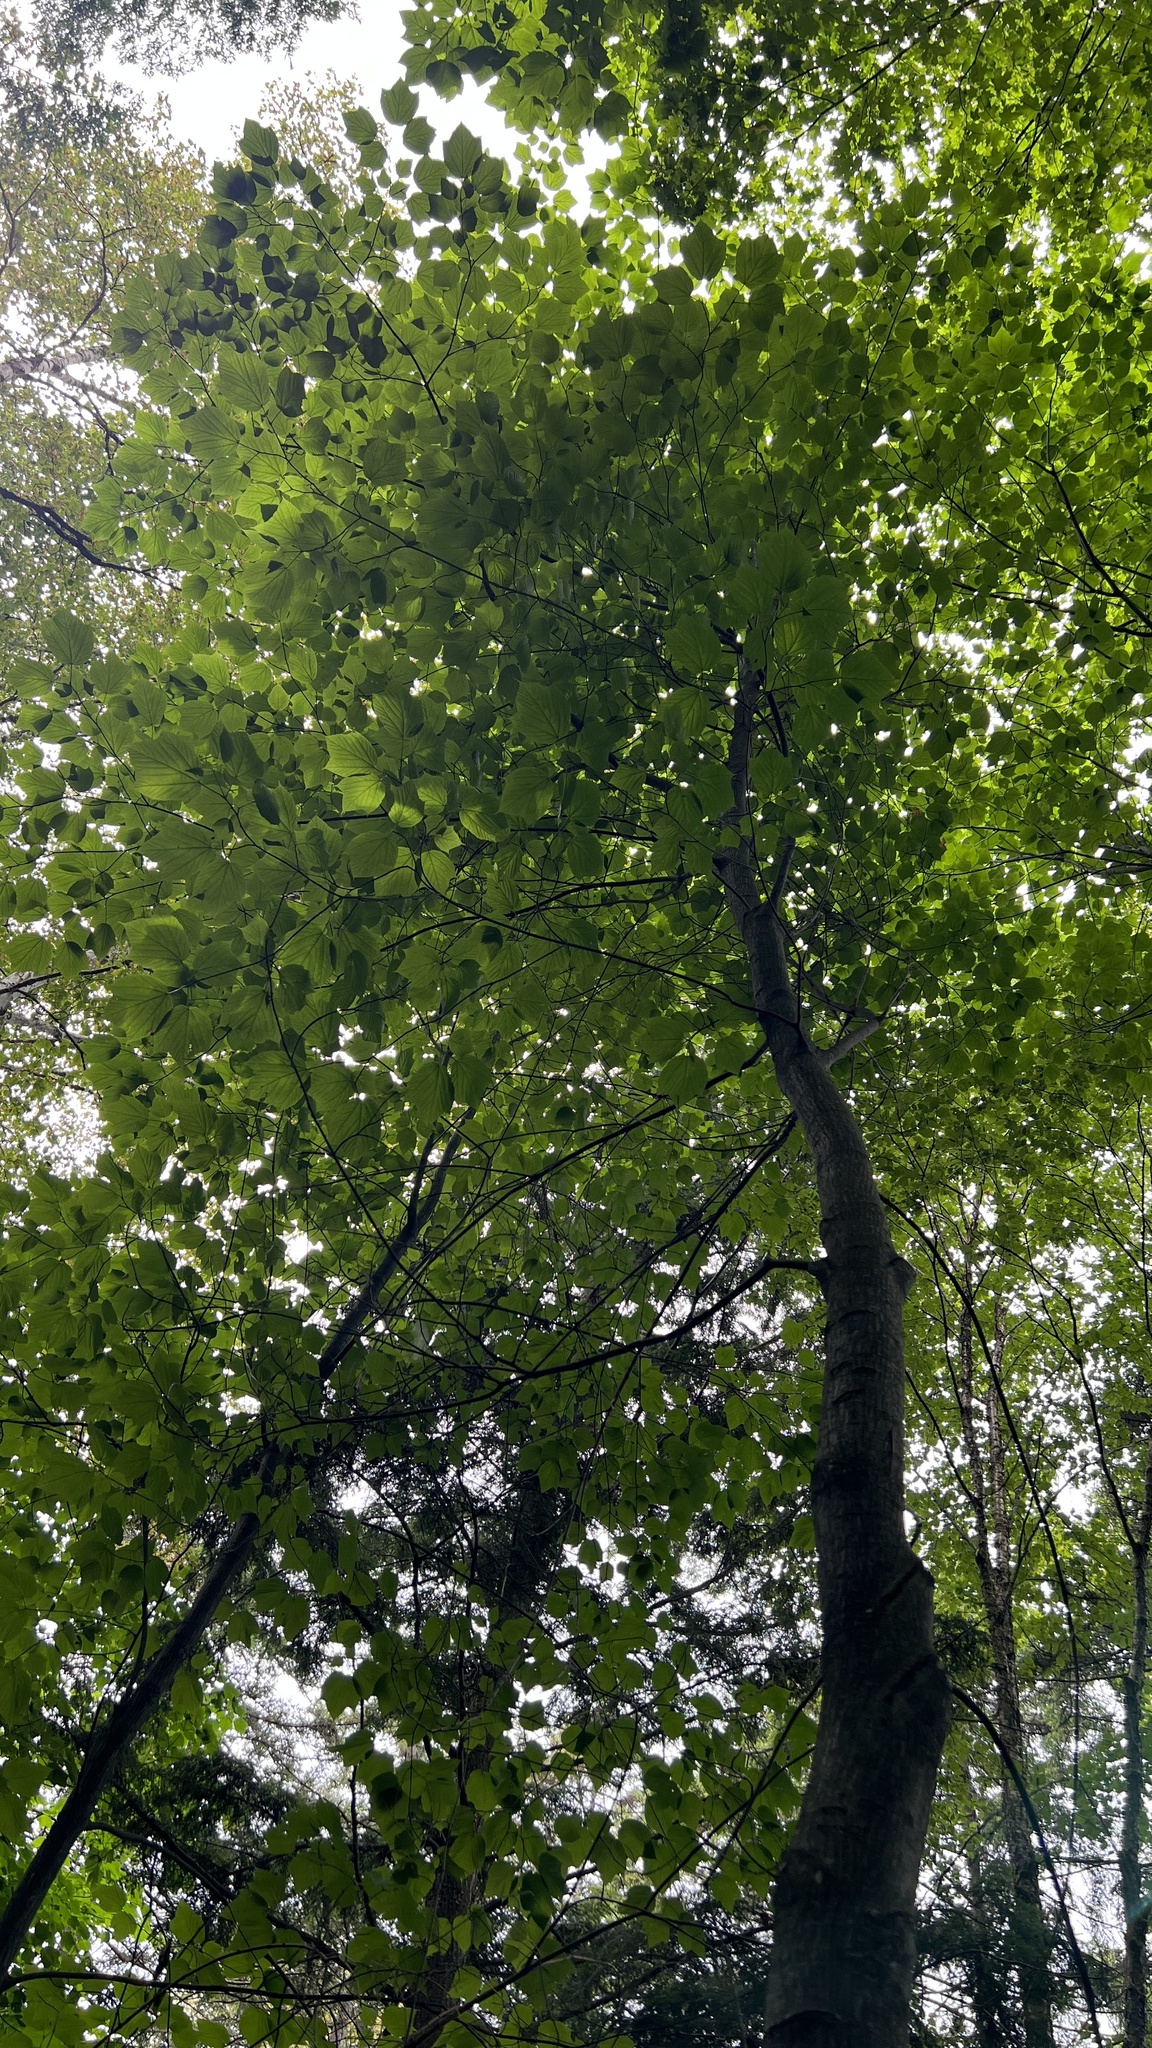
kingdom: Plantae
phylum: Tracheophyta
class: Magnoliopsida
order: Sapindales
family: Sapindaceae
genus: Acer
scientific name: Acer pensylvanicum
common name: Moosewood
